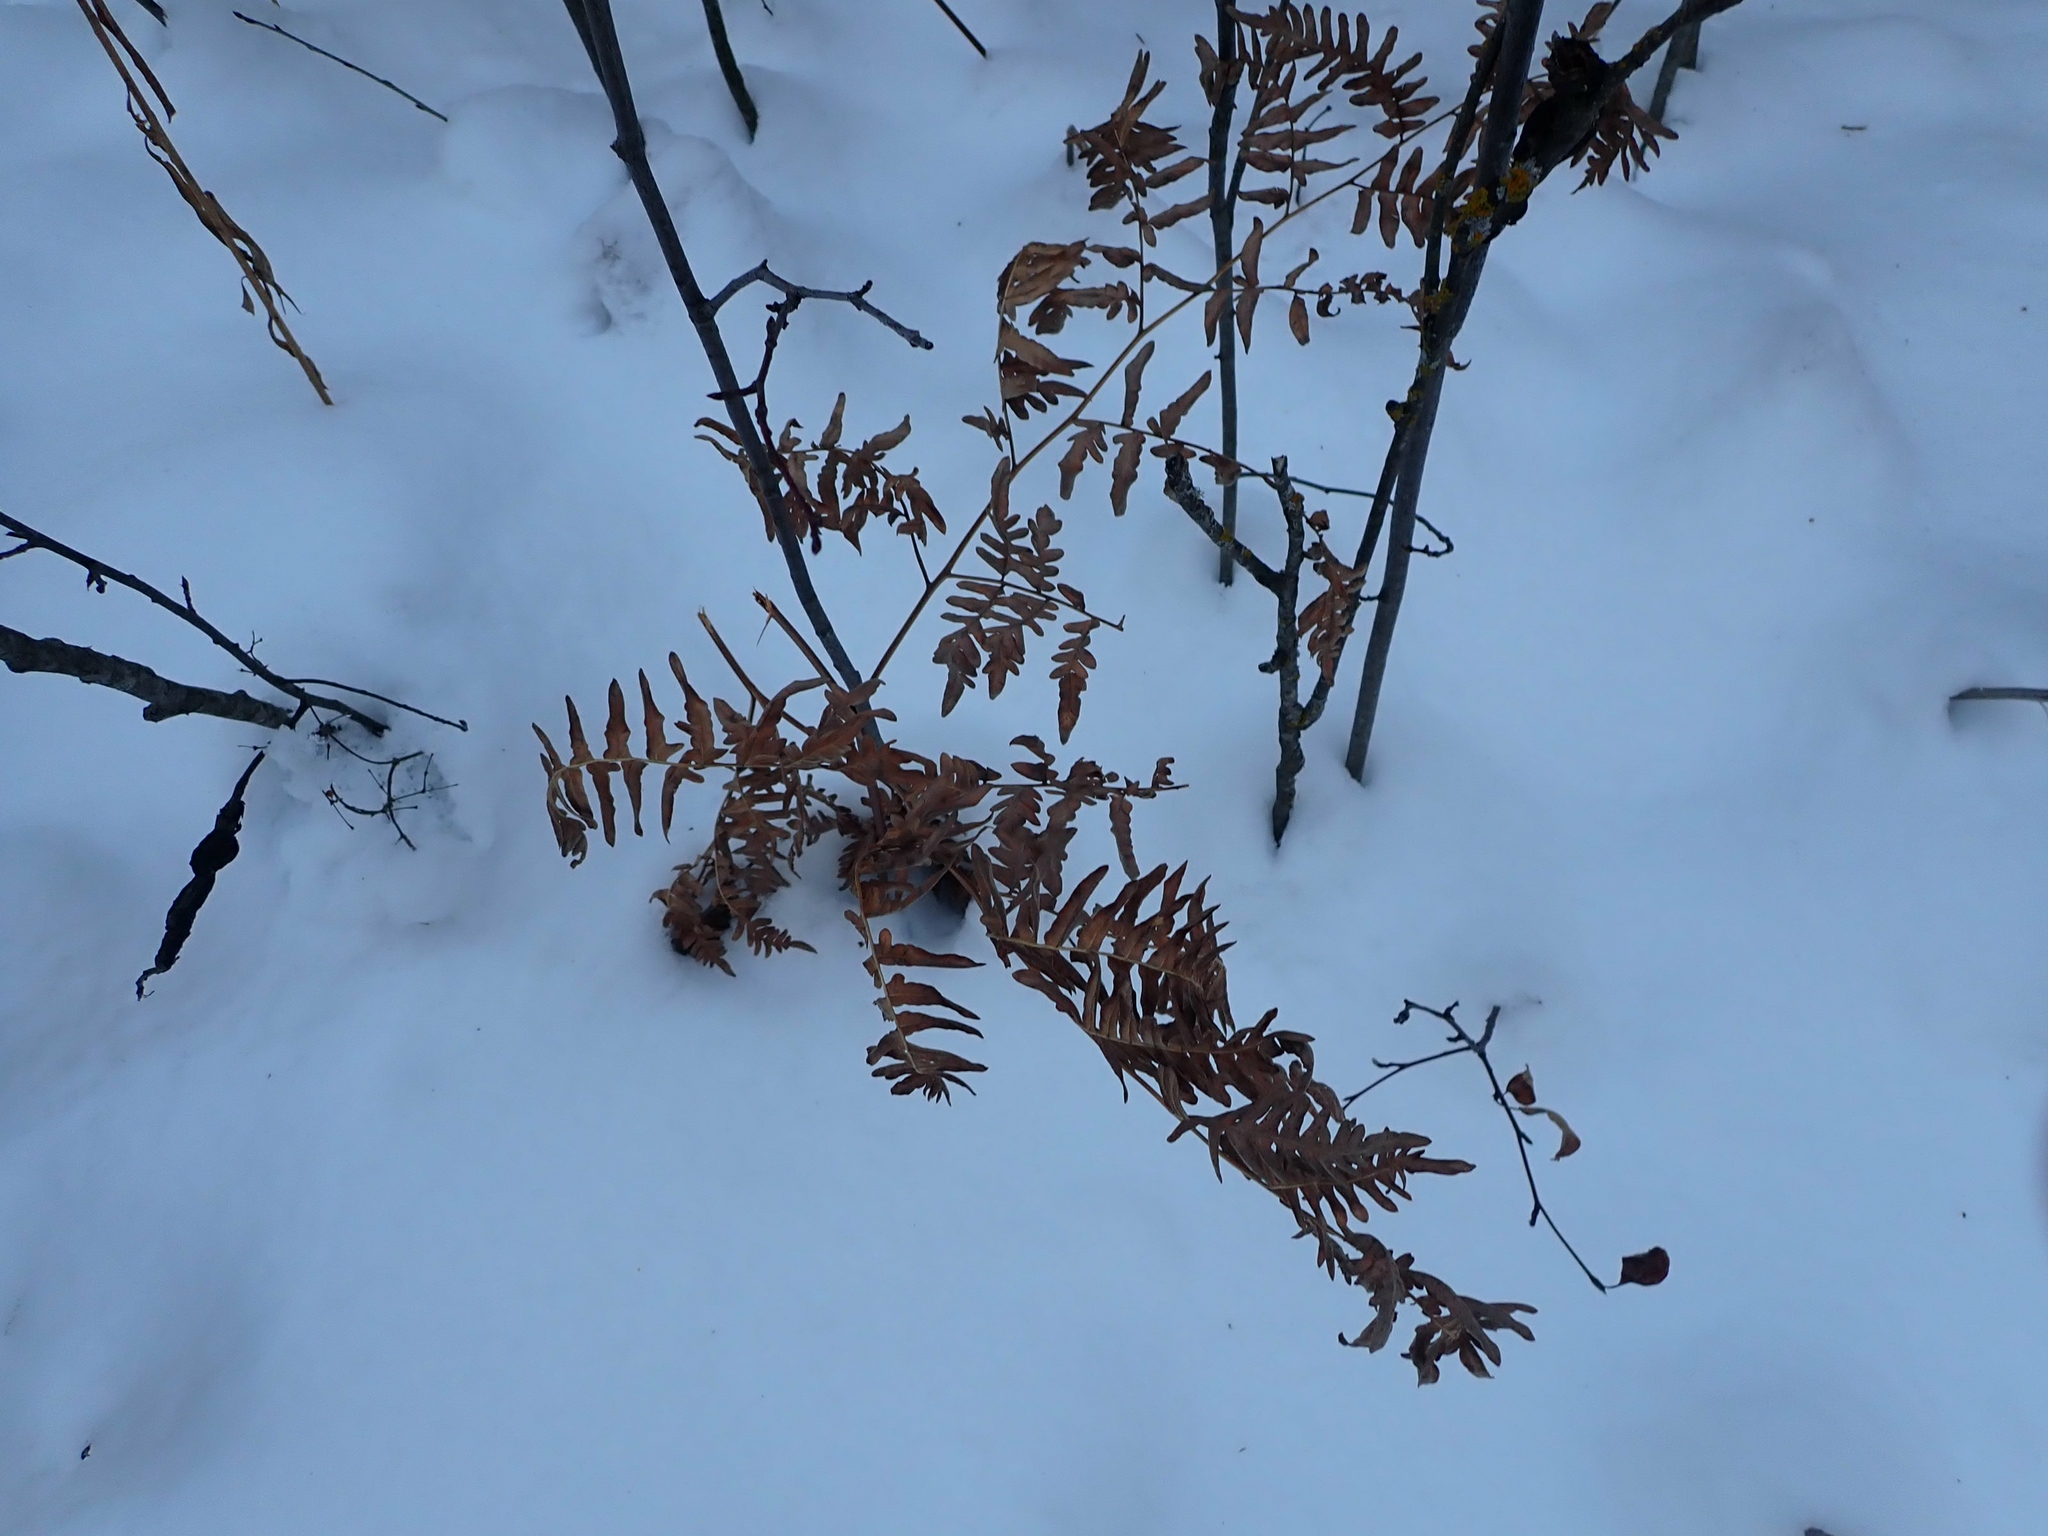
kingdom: Plantae
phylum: Tracheophyta
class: Polypodiopsida
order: Polypodiales
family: Dennstaedtiaceae
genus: Pteridium
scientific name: Pteridium aquilinum
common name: Bracken
